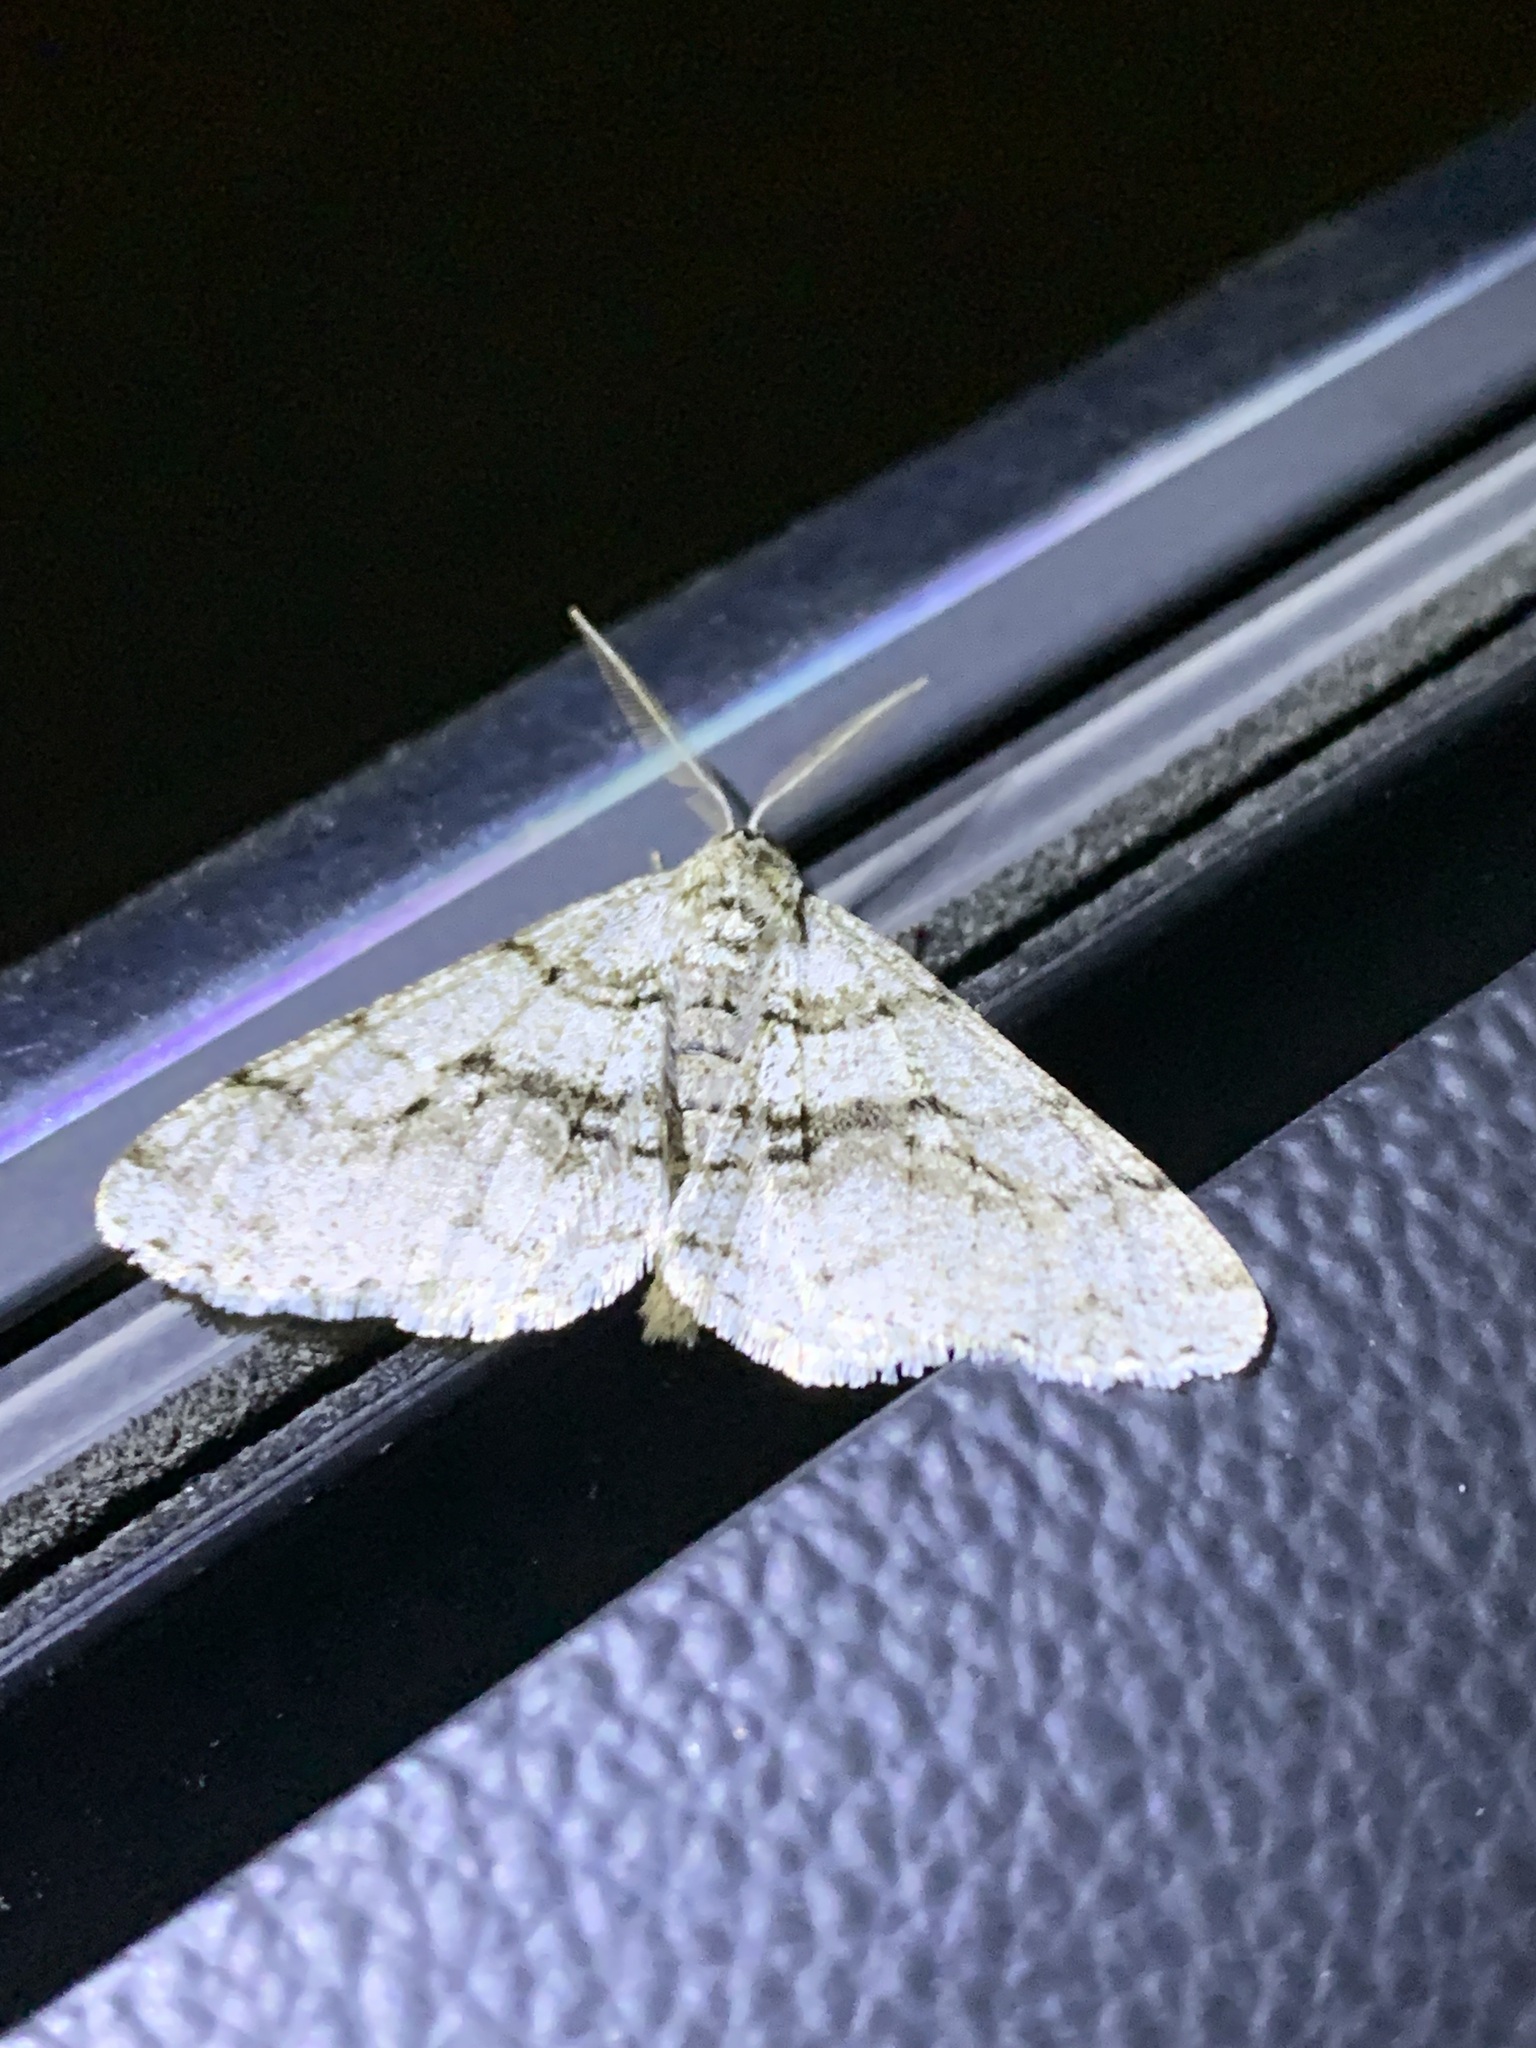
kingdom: Animalia
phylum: Arthropoda
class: Insecta
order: Lepidoptera
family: Geometridae
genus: Phigalia
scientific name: Phigalia titea
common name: Spiny looper
